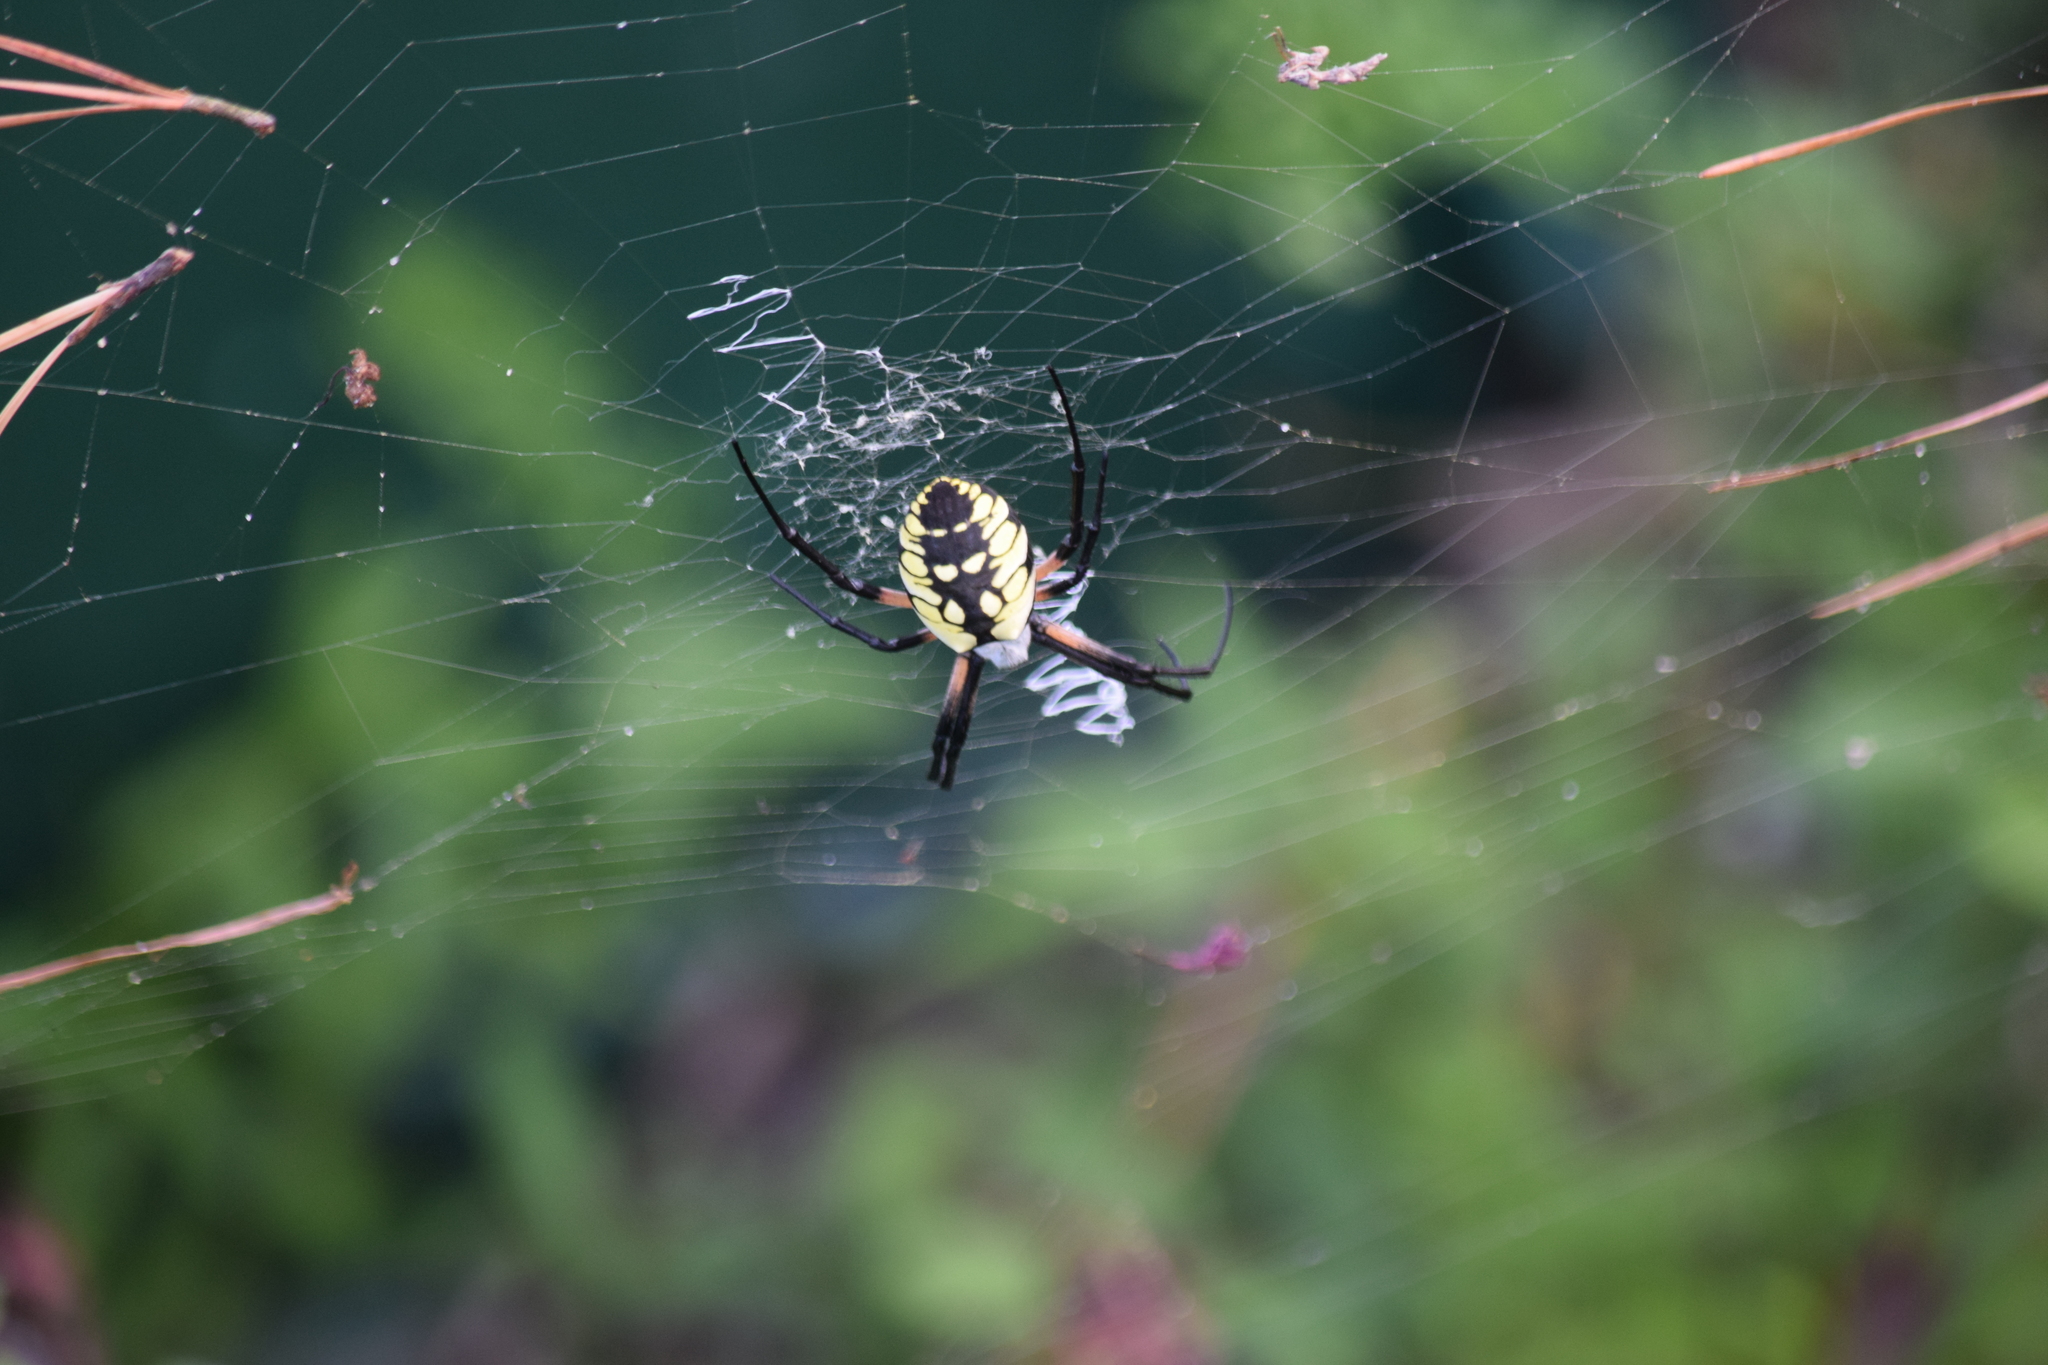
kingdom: Animalia
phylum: Arthropoda
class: Arachnida
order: Araneae
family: Araneidae
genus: Argiope
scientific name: Argiope aurantia
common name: Orb weavers
